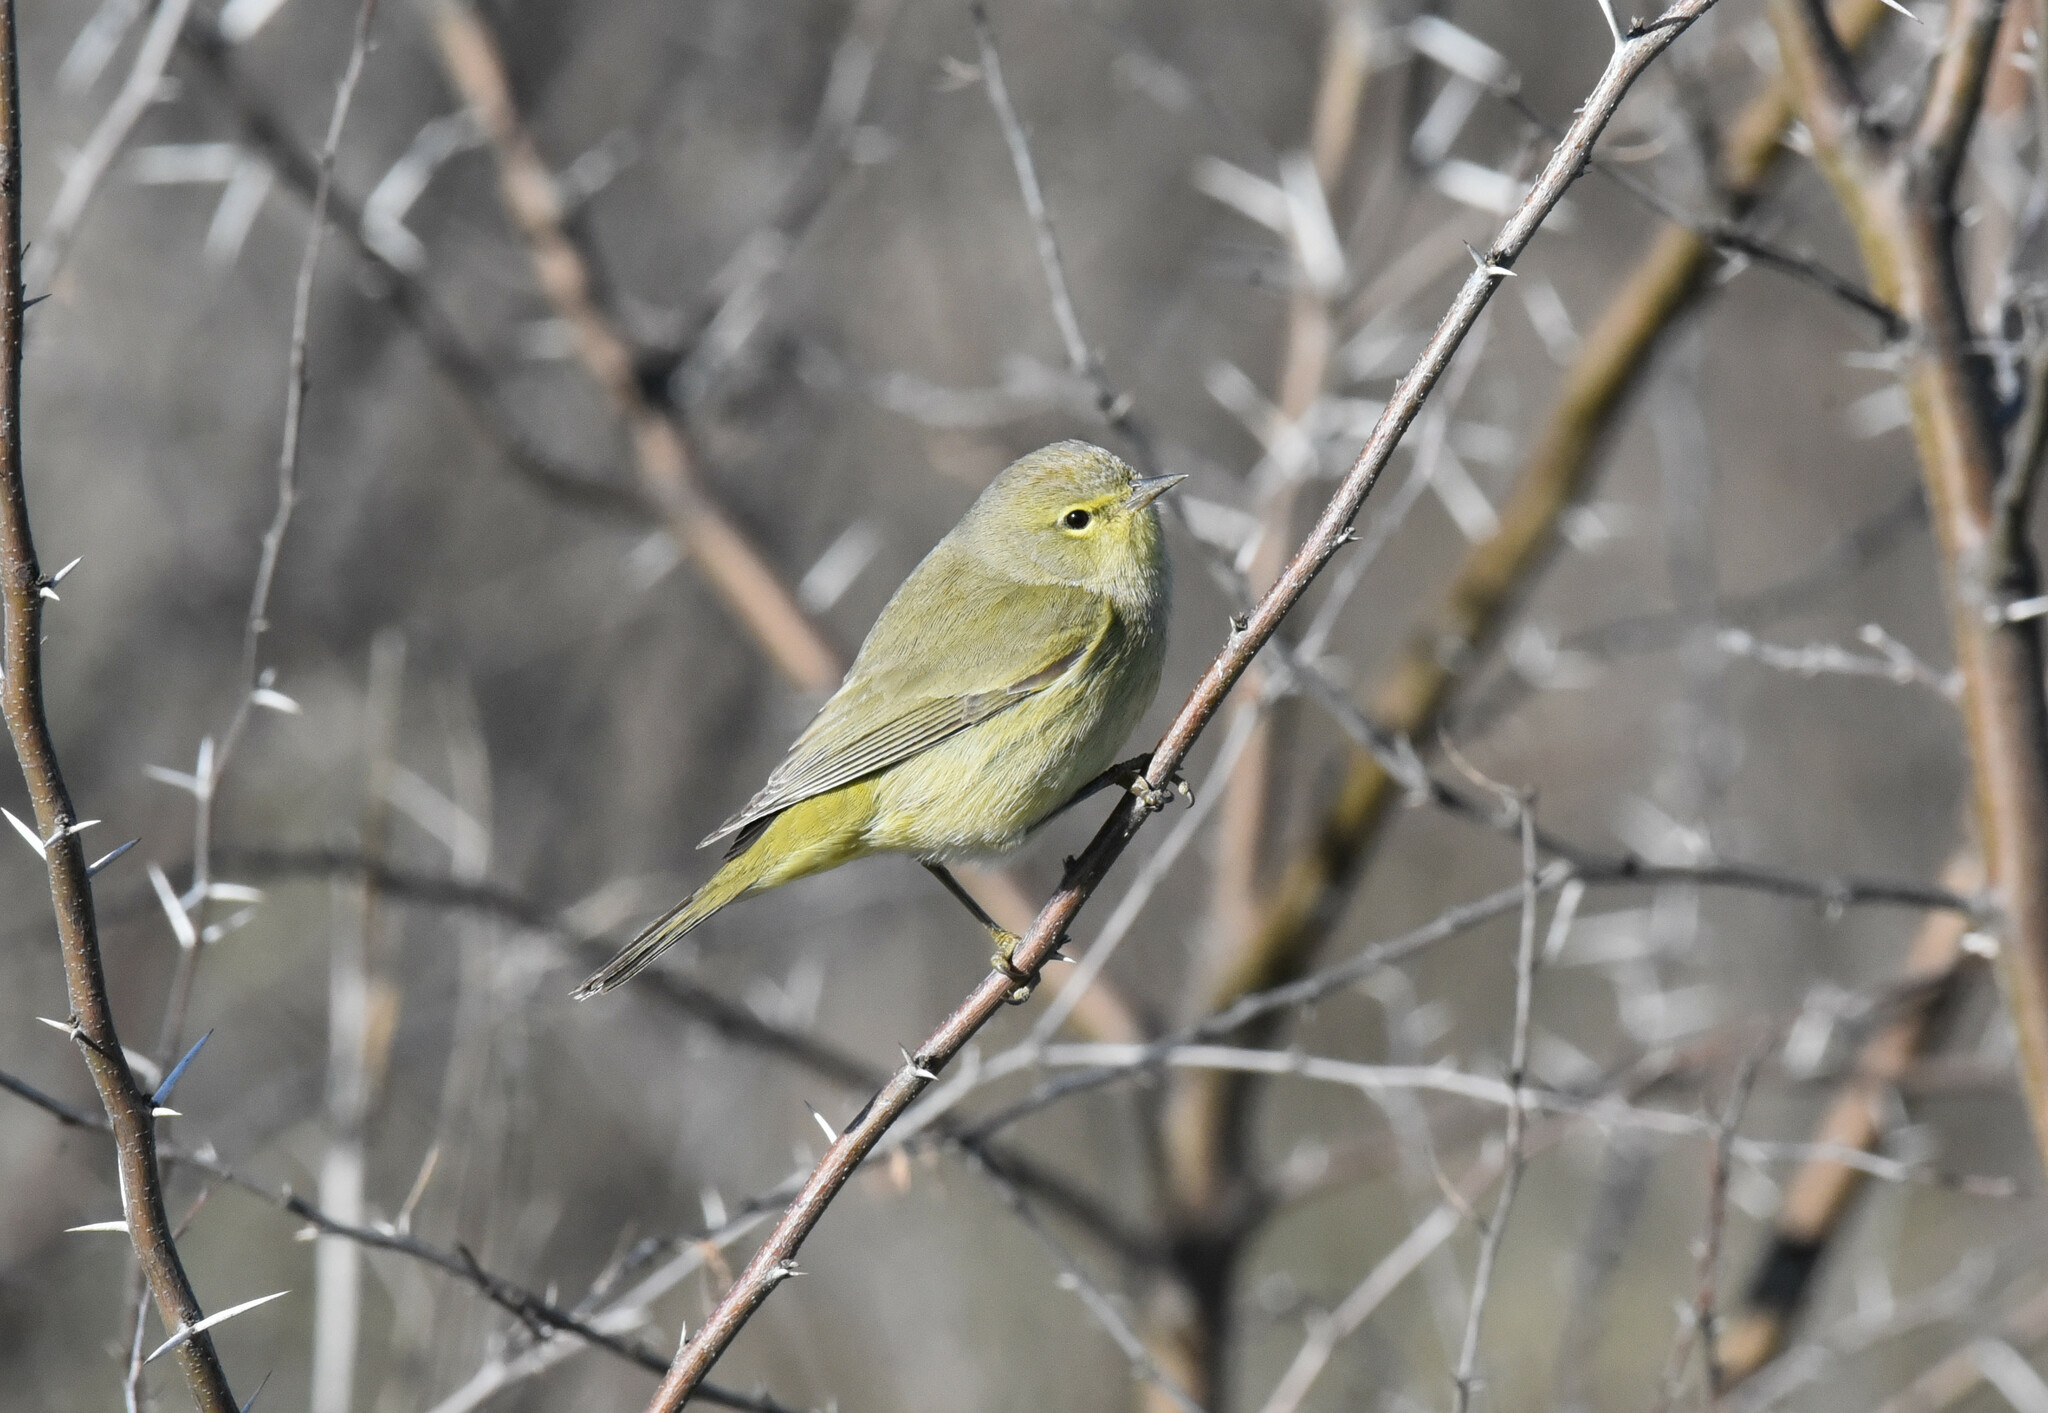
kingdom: Animalia
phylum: Chordata
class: Aves
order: Passeriformes
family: Parulidae
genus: Leiothlypis
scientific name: Leiothlypis celata
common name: Orange-crowned warbler
